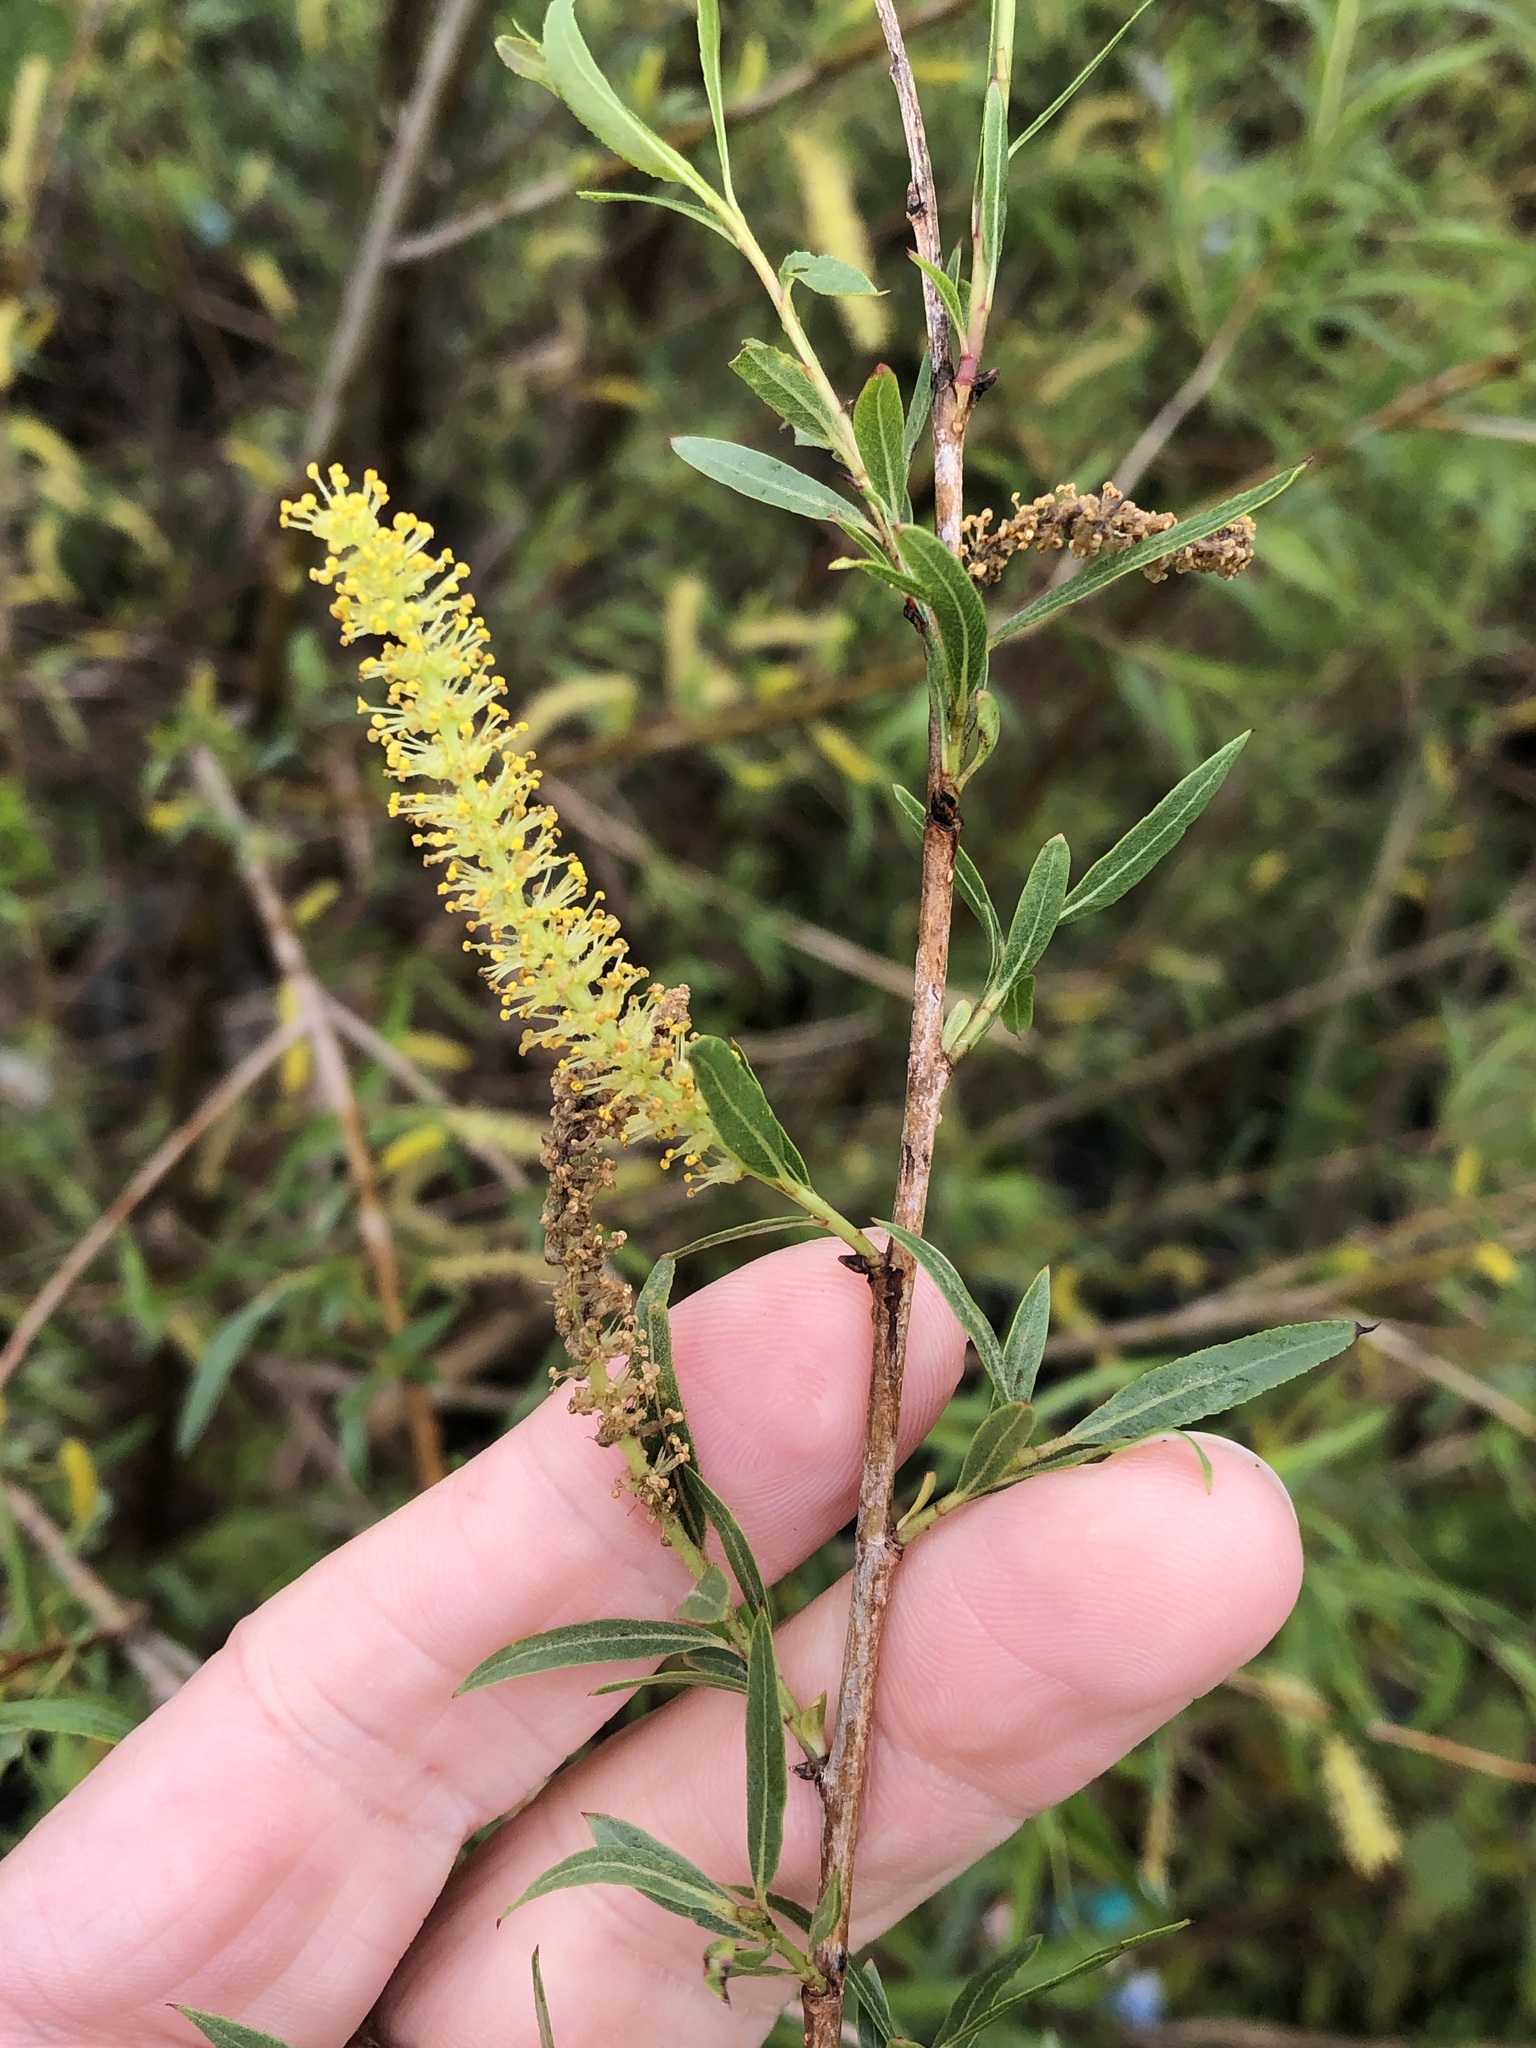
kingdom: Plantae
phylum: Tracheophyta
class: Magnoliopsida
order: Malpighiales
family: Salicaceae
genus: Salix
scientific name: Salix nigra
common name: Black willow
